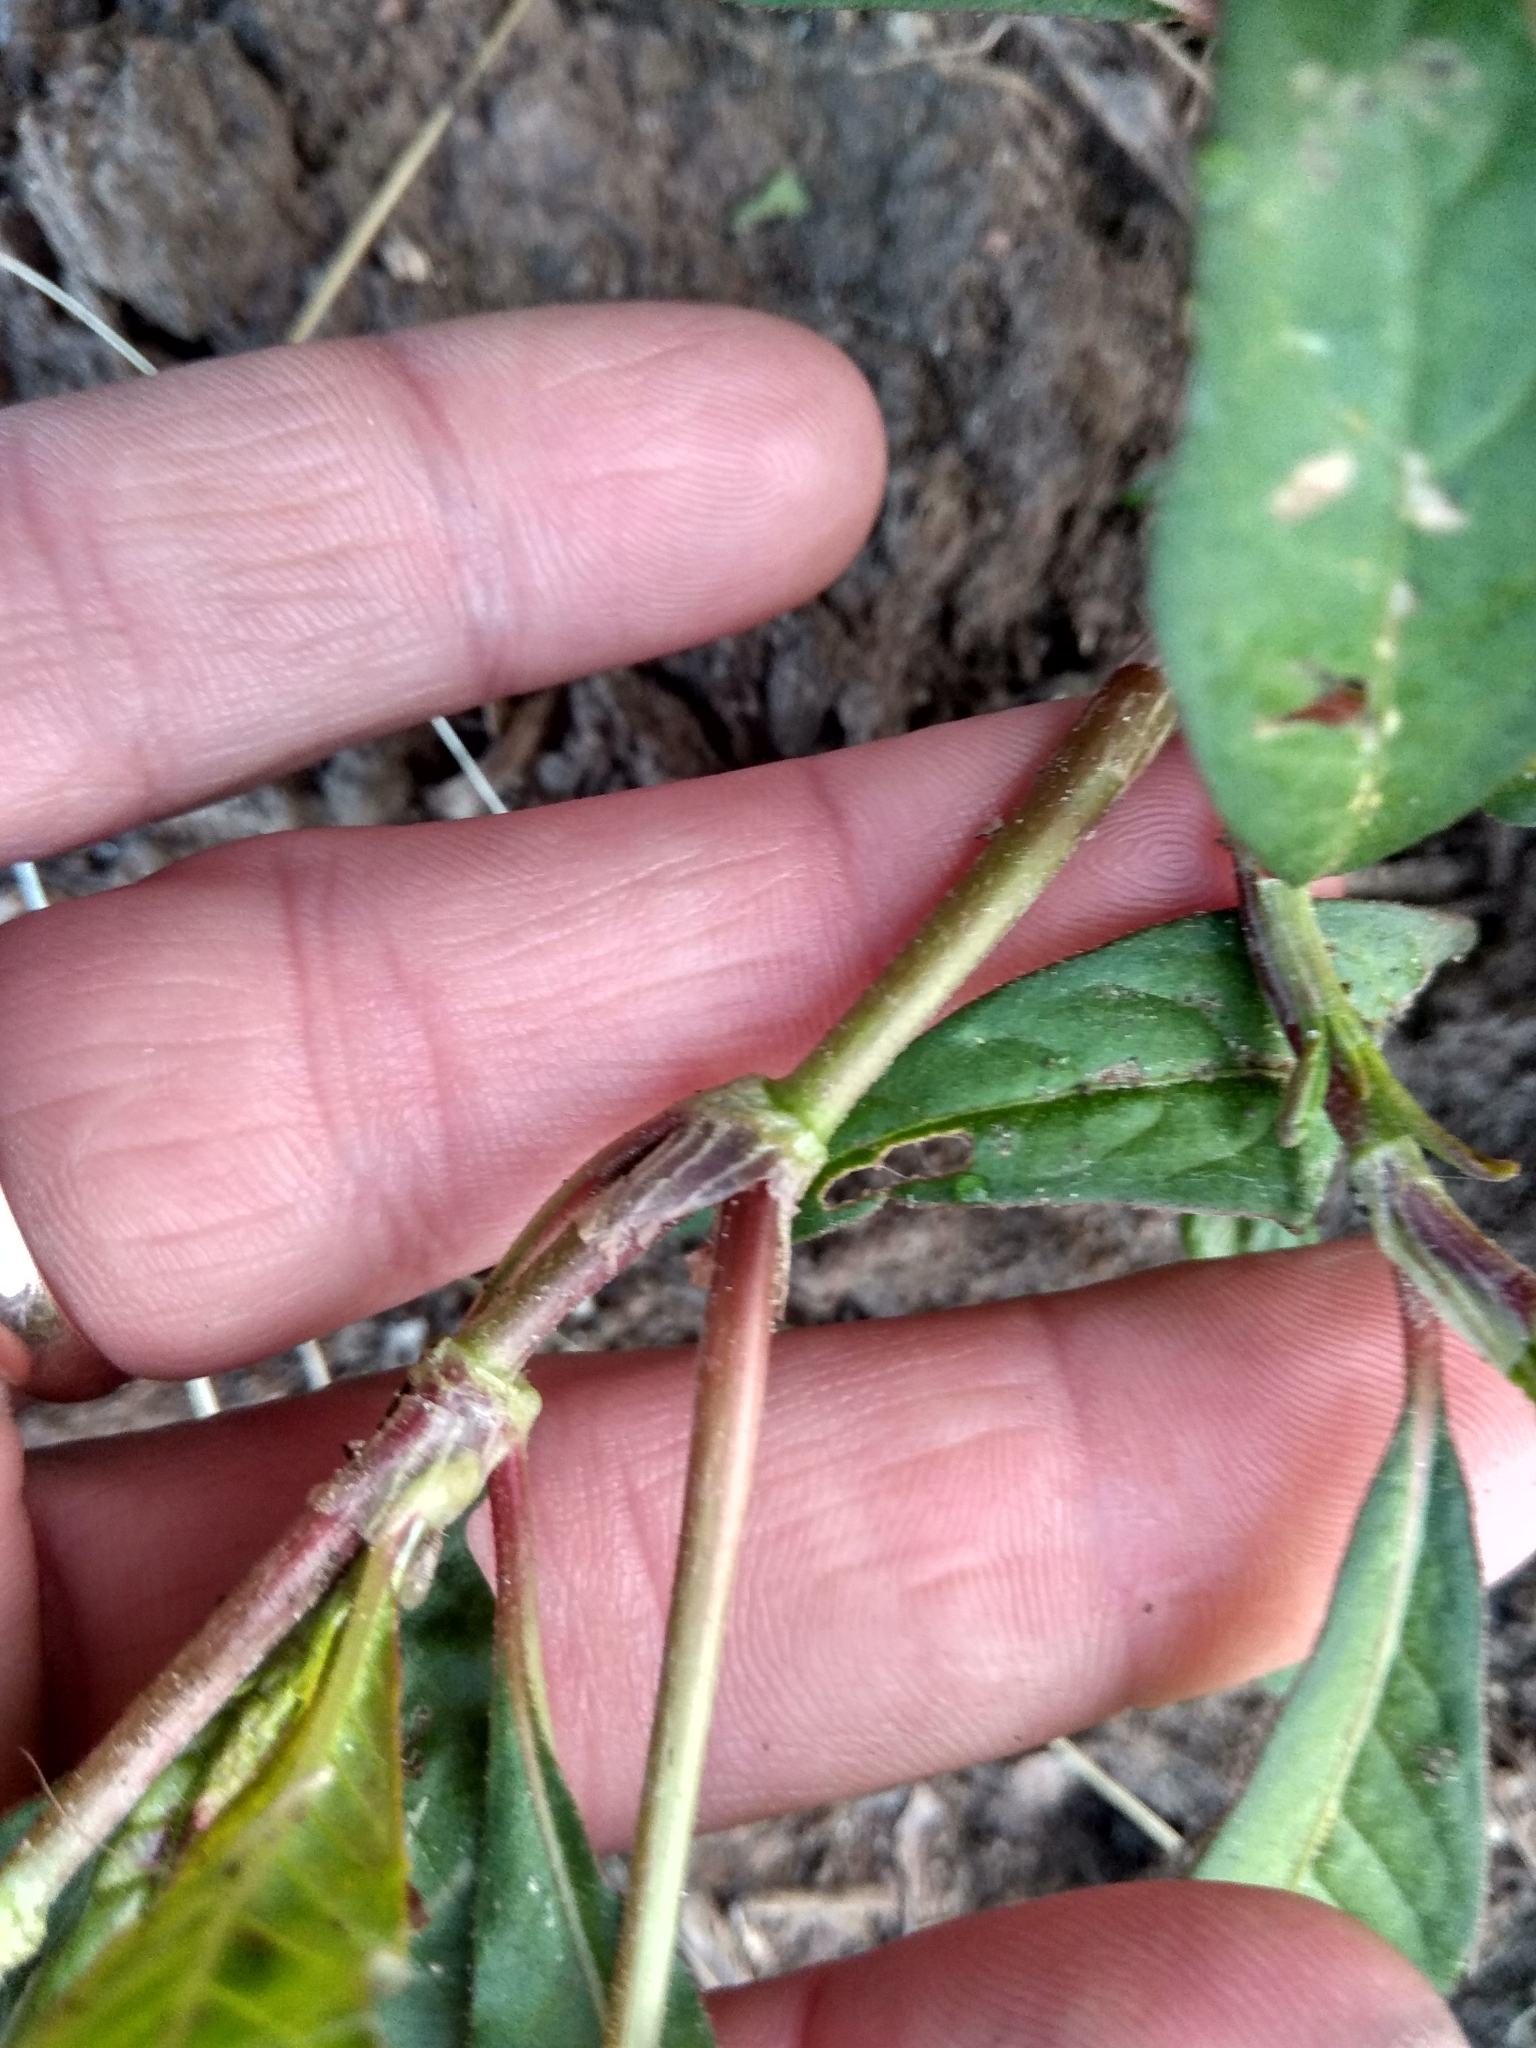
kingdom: Plantae
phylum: Tracheophyta
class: Magnoliopsida
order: Caryophyllales
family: Polygonaceae
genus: Persicaria
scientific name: Persicaria lapathifolia
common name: Curlytop knotweed
